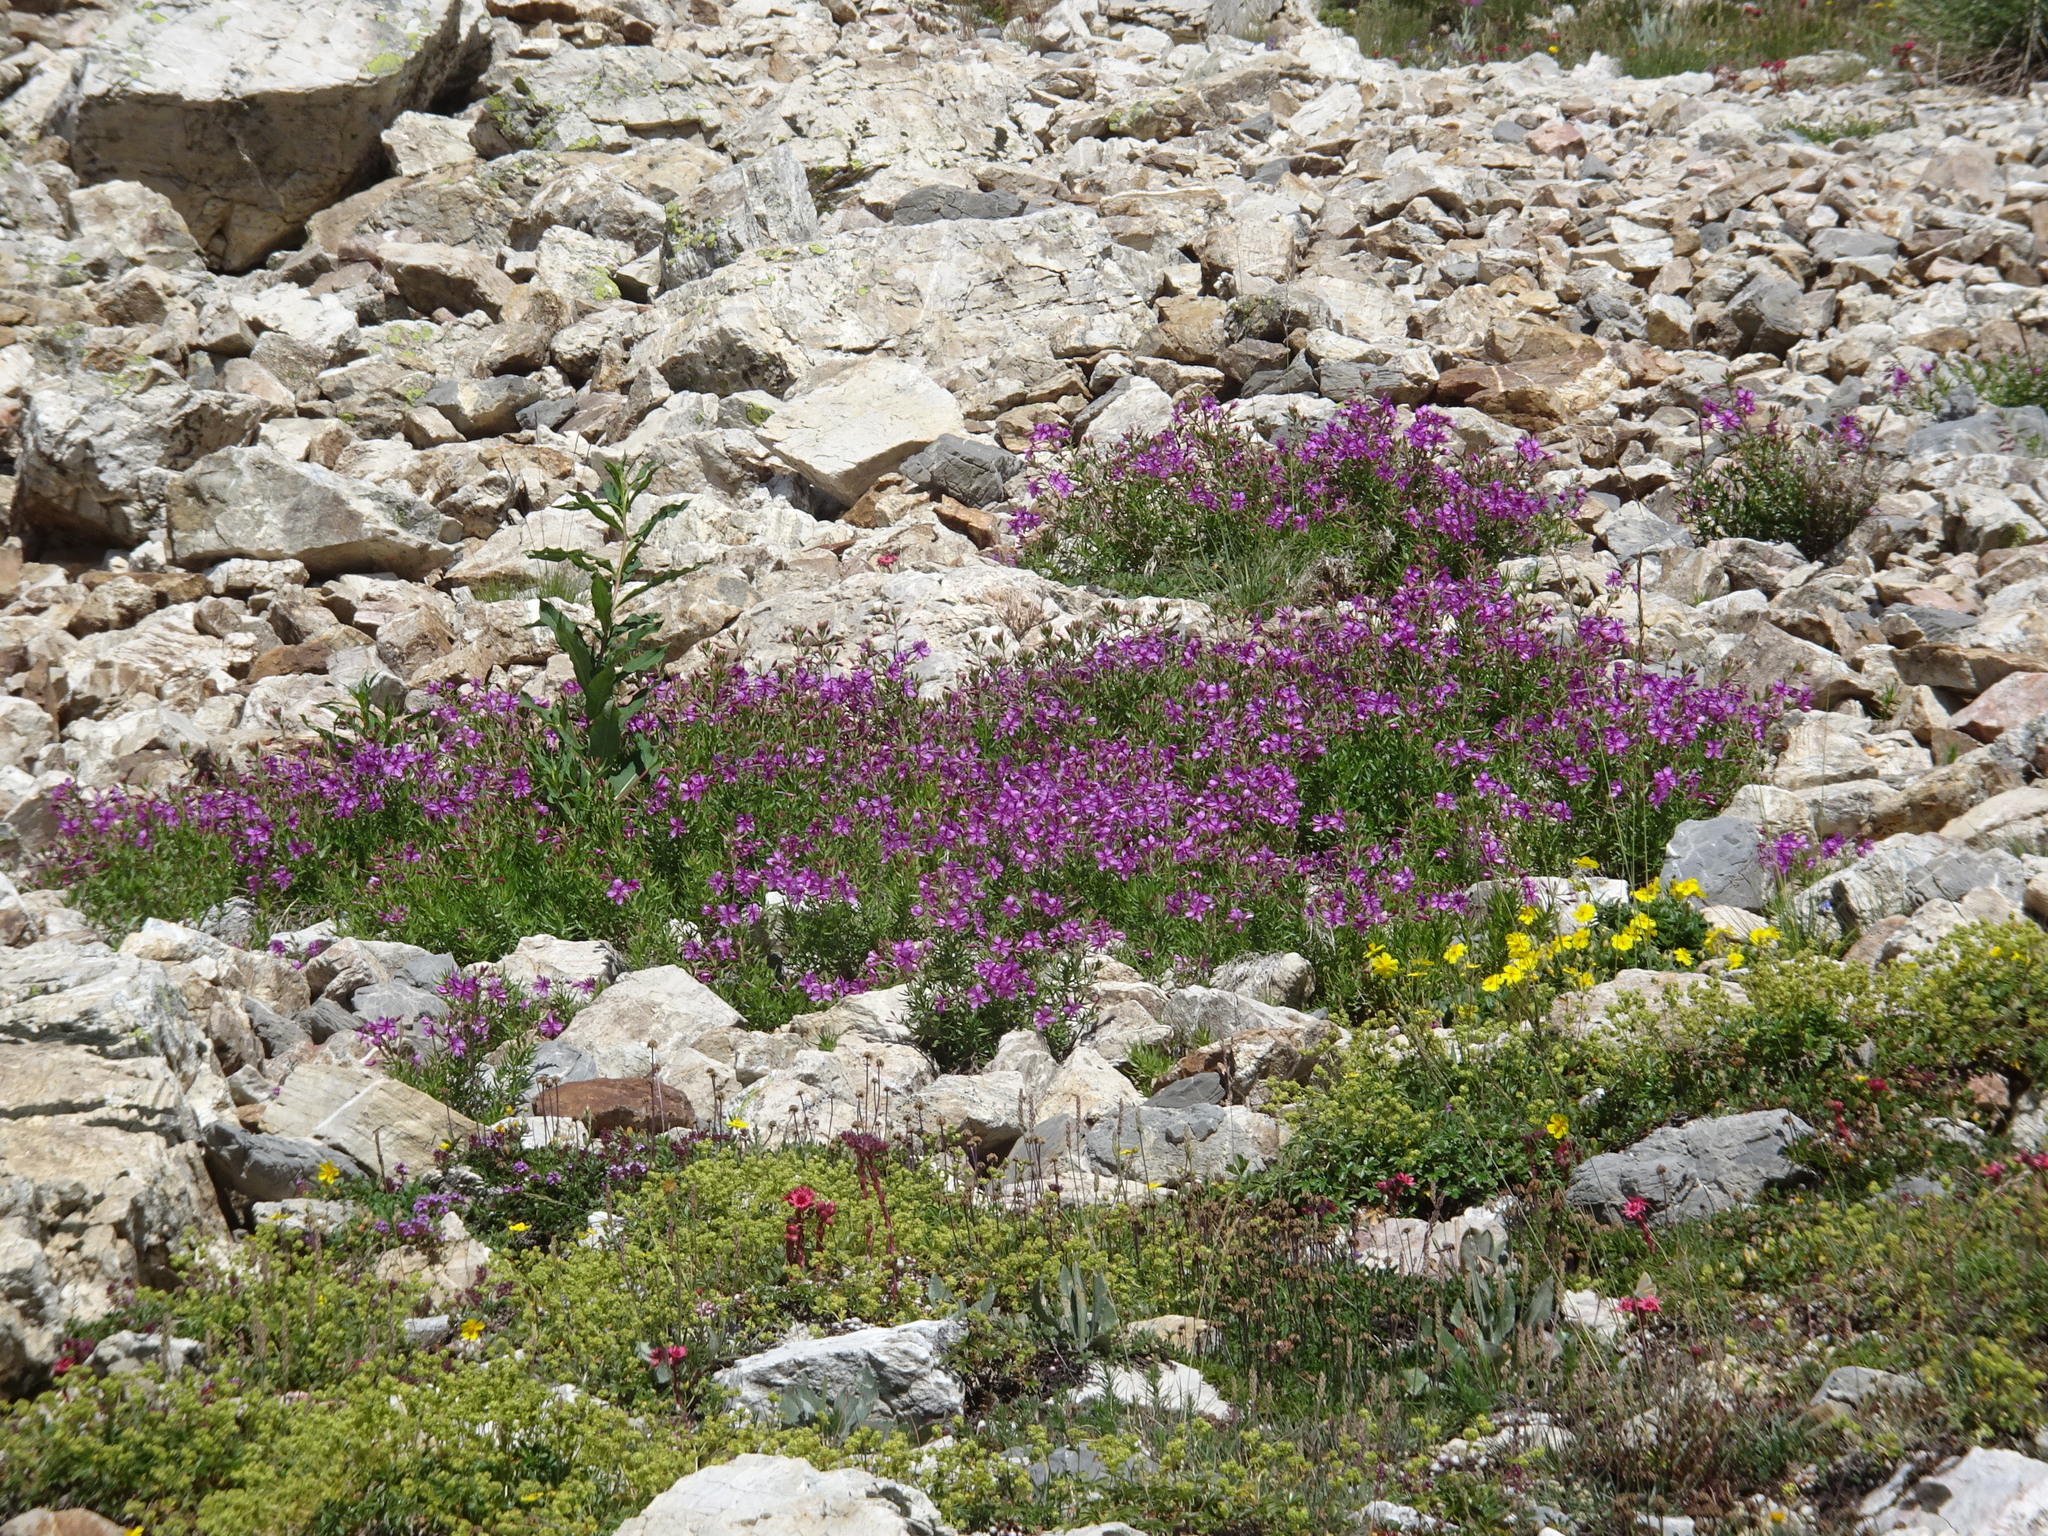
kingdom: Plantae
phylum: Tracheophyta
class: Magnoliopsida
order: Myrtales
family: Onagraceae
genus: Chamaenerion
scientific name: Chamaenerion fleischeri
